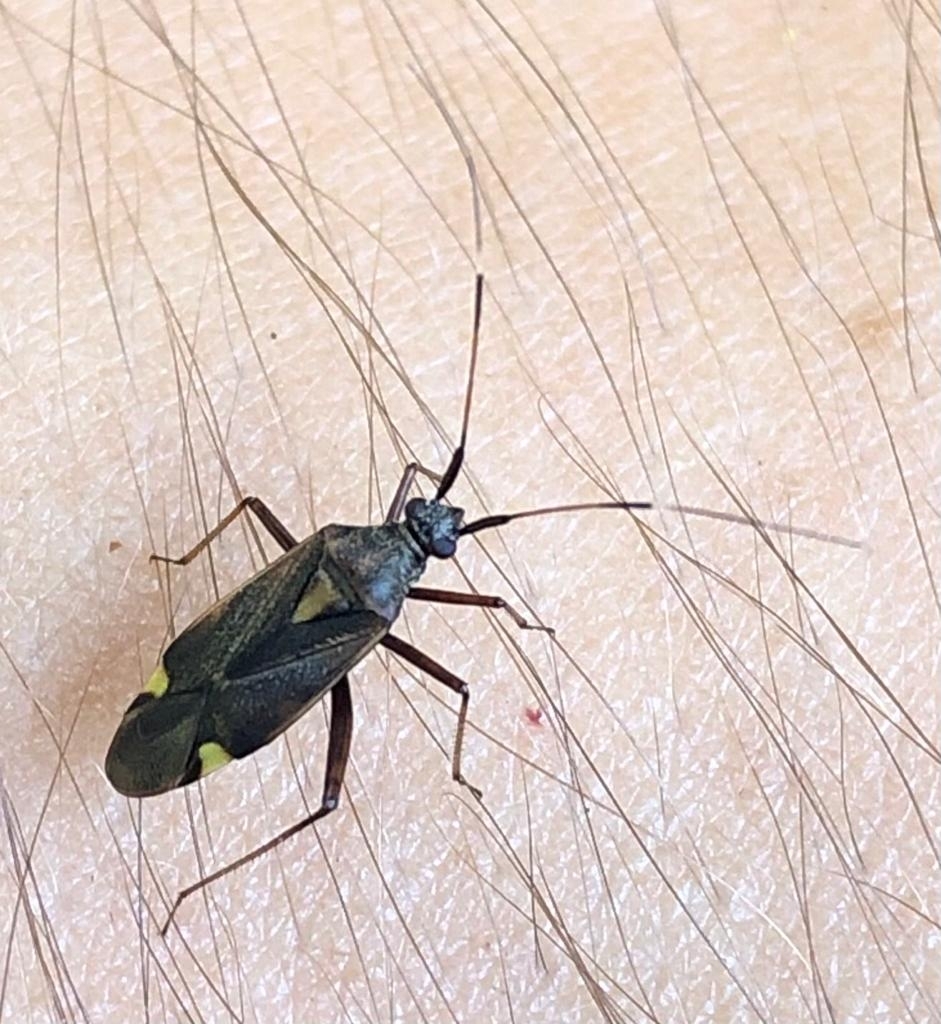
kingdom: Animalia
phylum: Arthropoda
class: Insecta
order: Hemiptera
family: Miridae
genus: Closterotomus
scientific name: Closterotomus ventralis
